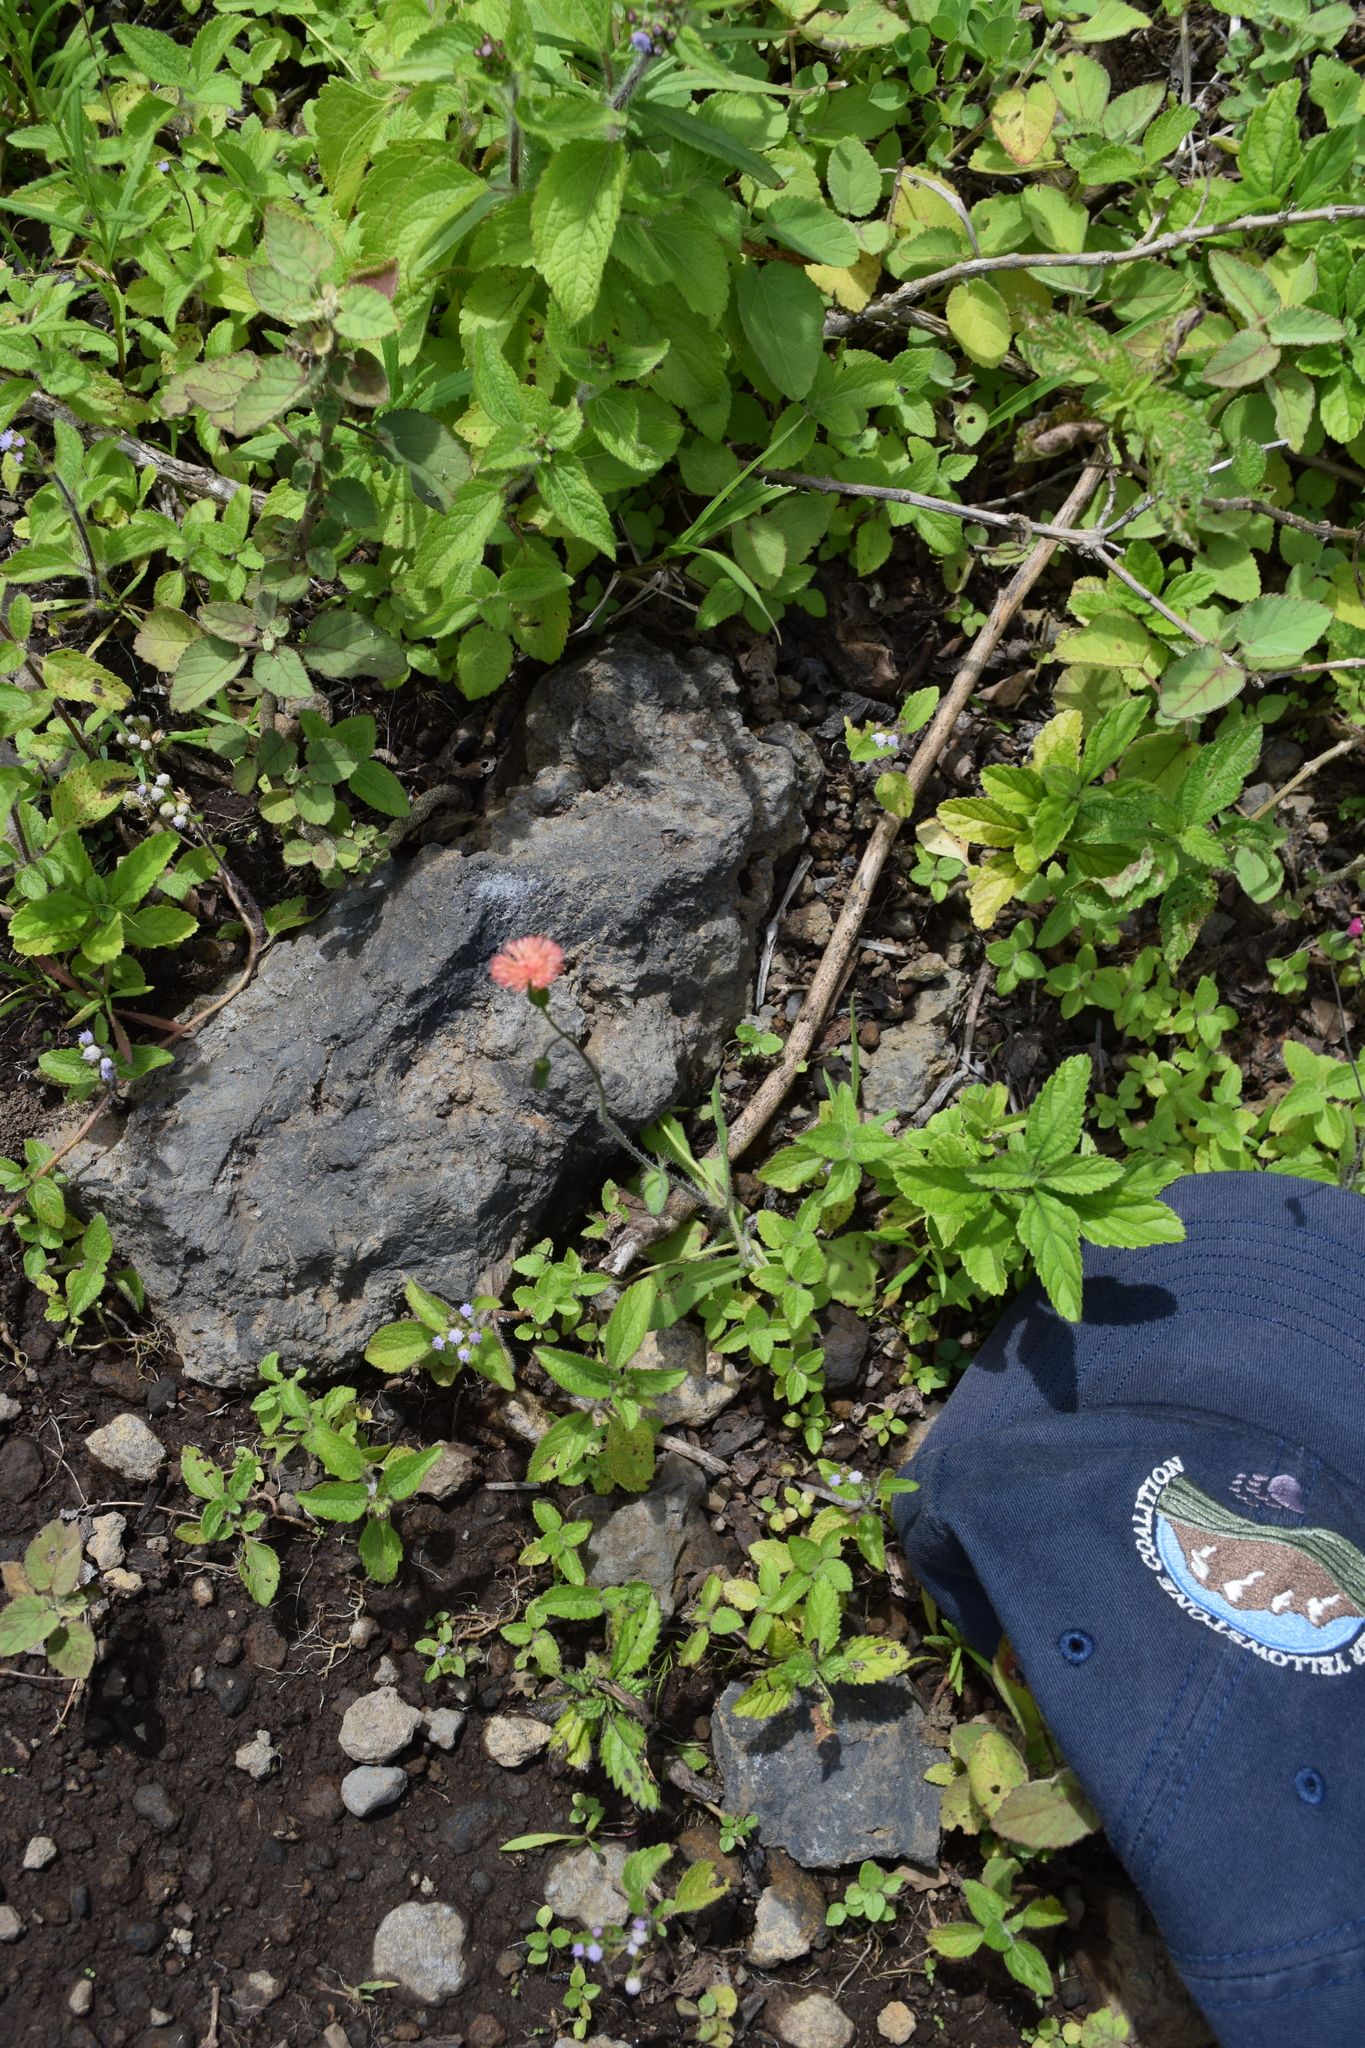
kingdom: Plantae
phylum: Tracheophyta
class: Magnoliopsida
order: Asterales
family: Asteraceae
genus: Emilia
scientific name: Emilia fosbergii
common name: Florida tasselflower
